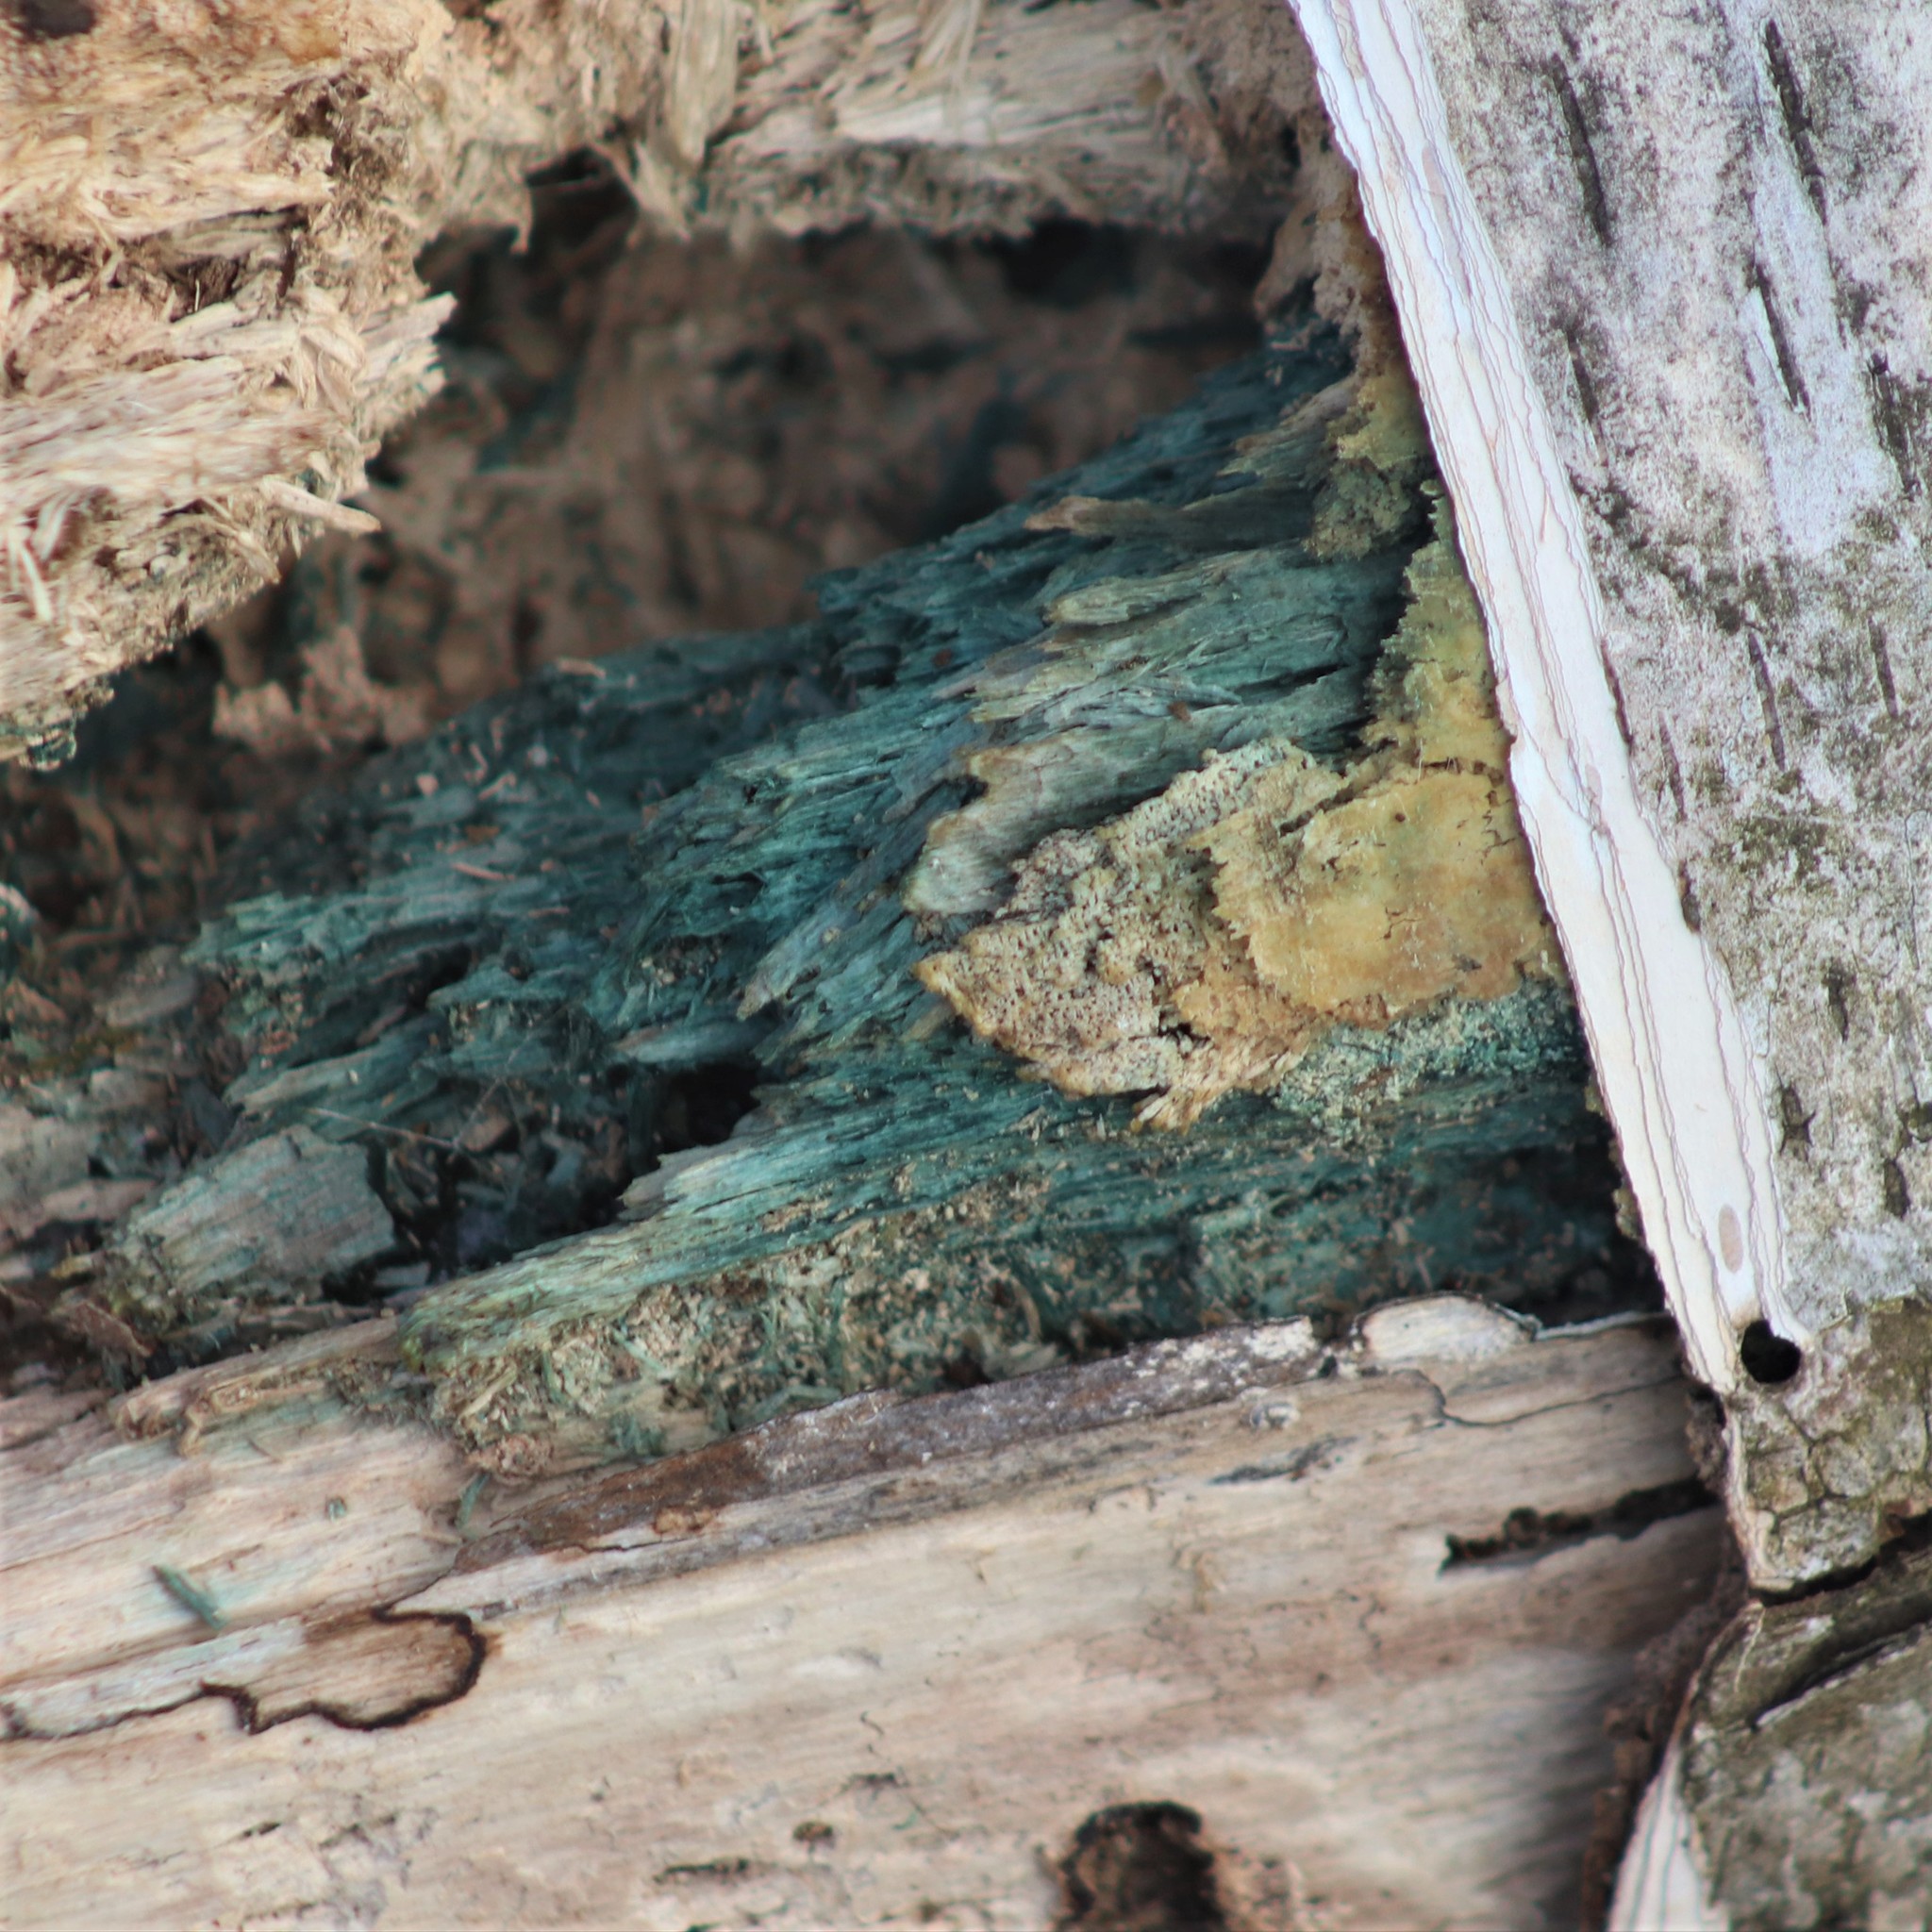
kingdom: Fungi
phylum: Ascomycota
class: Leotiomycetes
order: Helotiales
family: Chlorociboriaceae
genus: Chlorociboria
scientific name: Chlorociboria
